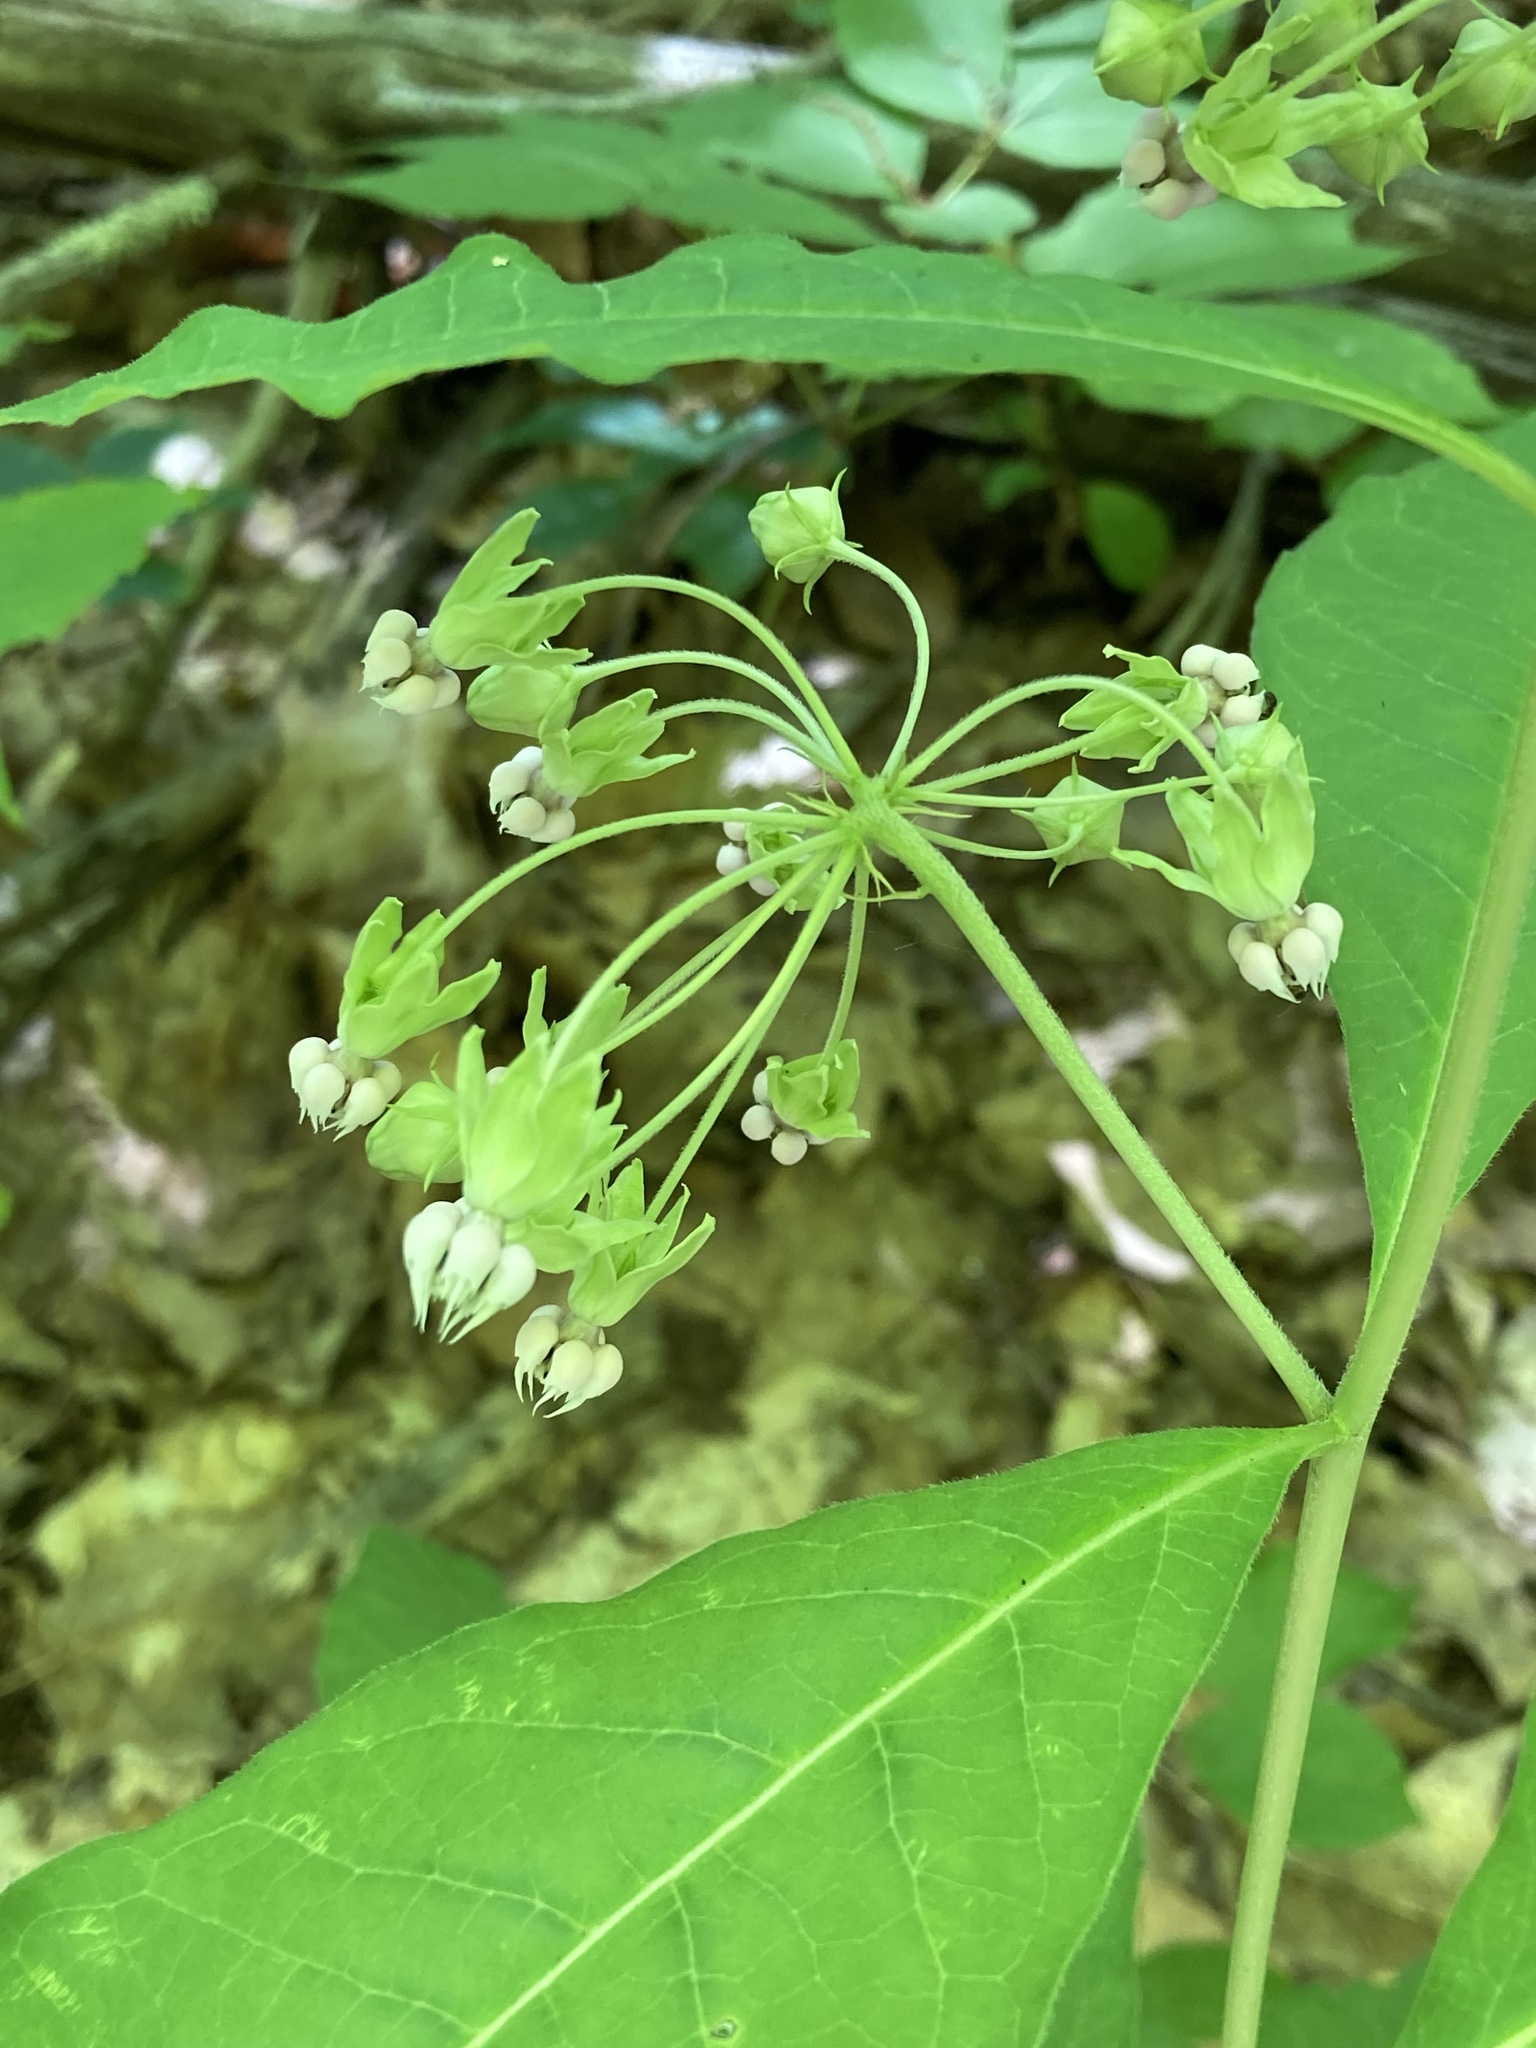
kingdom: Plantae
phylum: Tracheophyta
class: Magnoliopsida
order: Gentianales
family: Apocynaceae
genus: Asclepias
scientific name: Asclepias exaltata
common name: Poke milkweed
